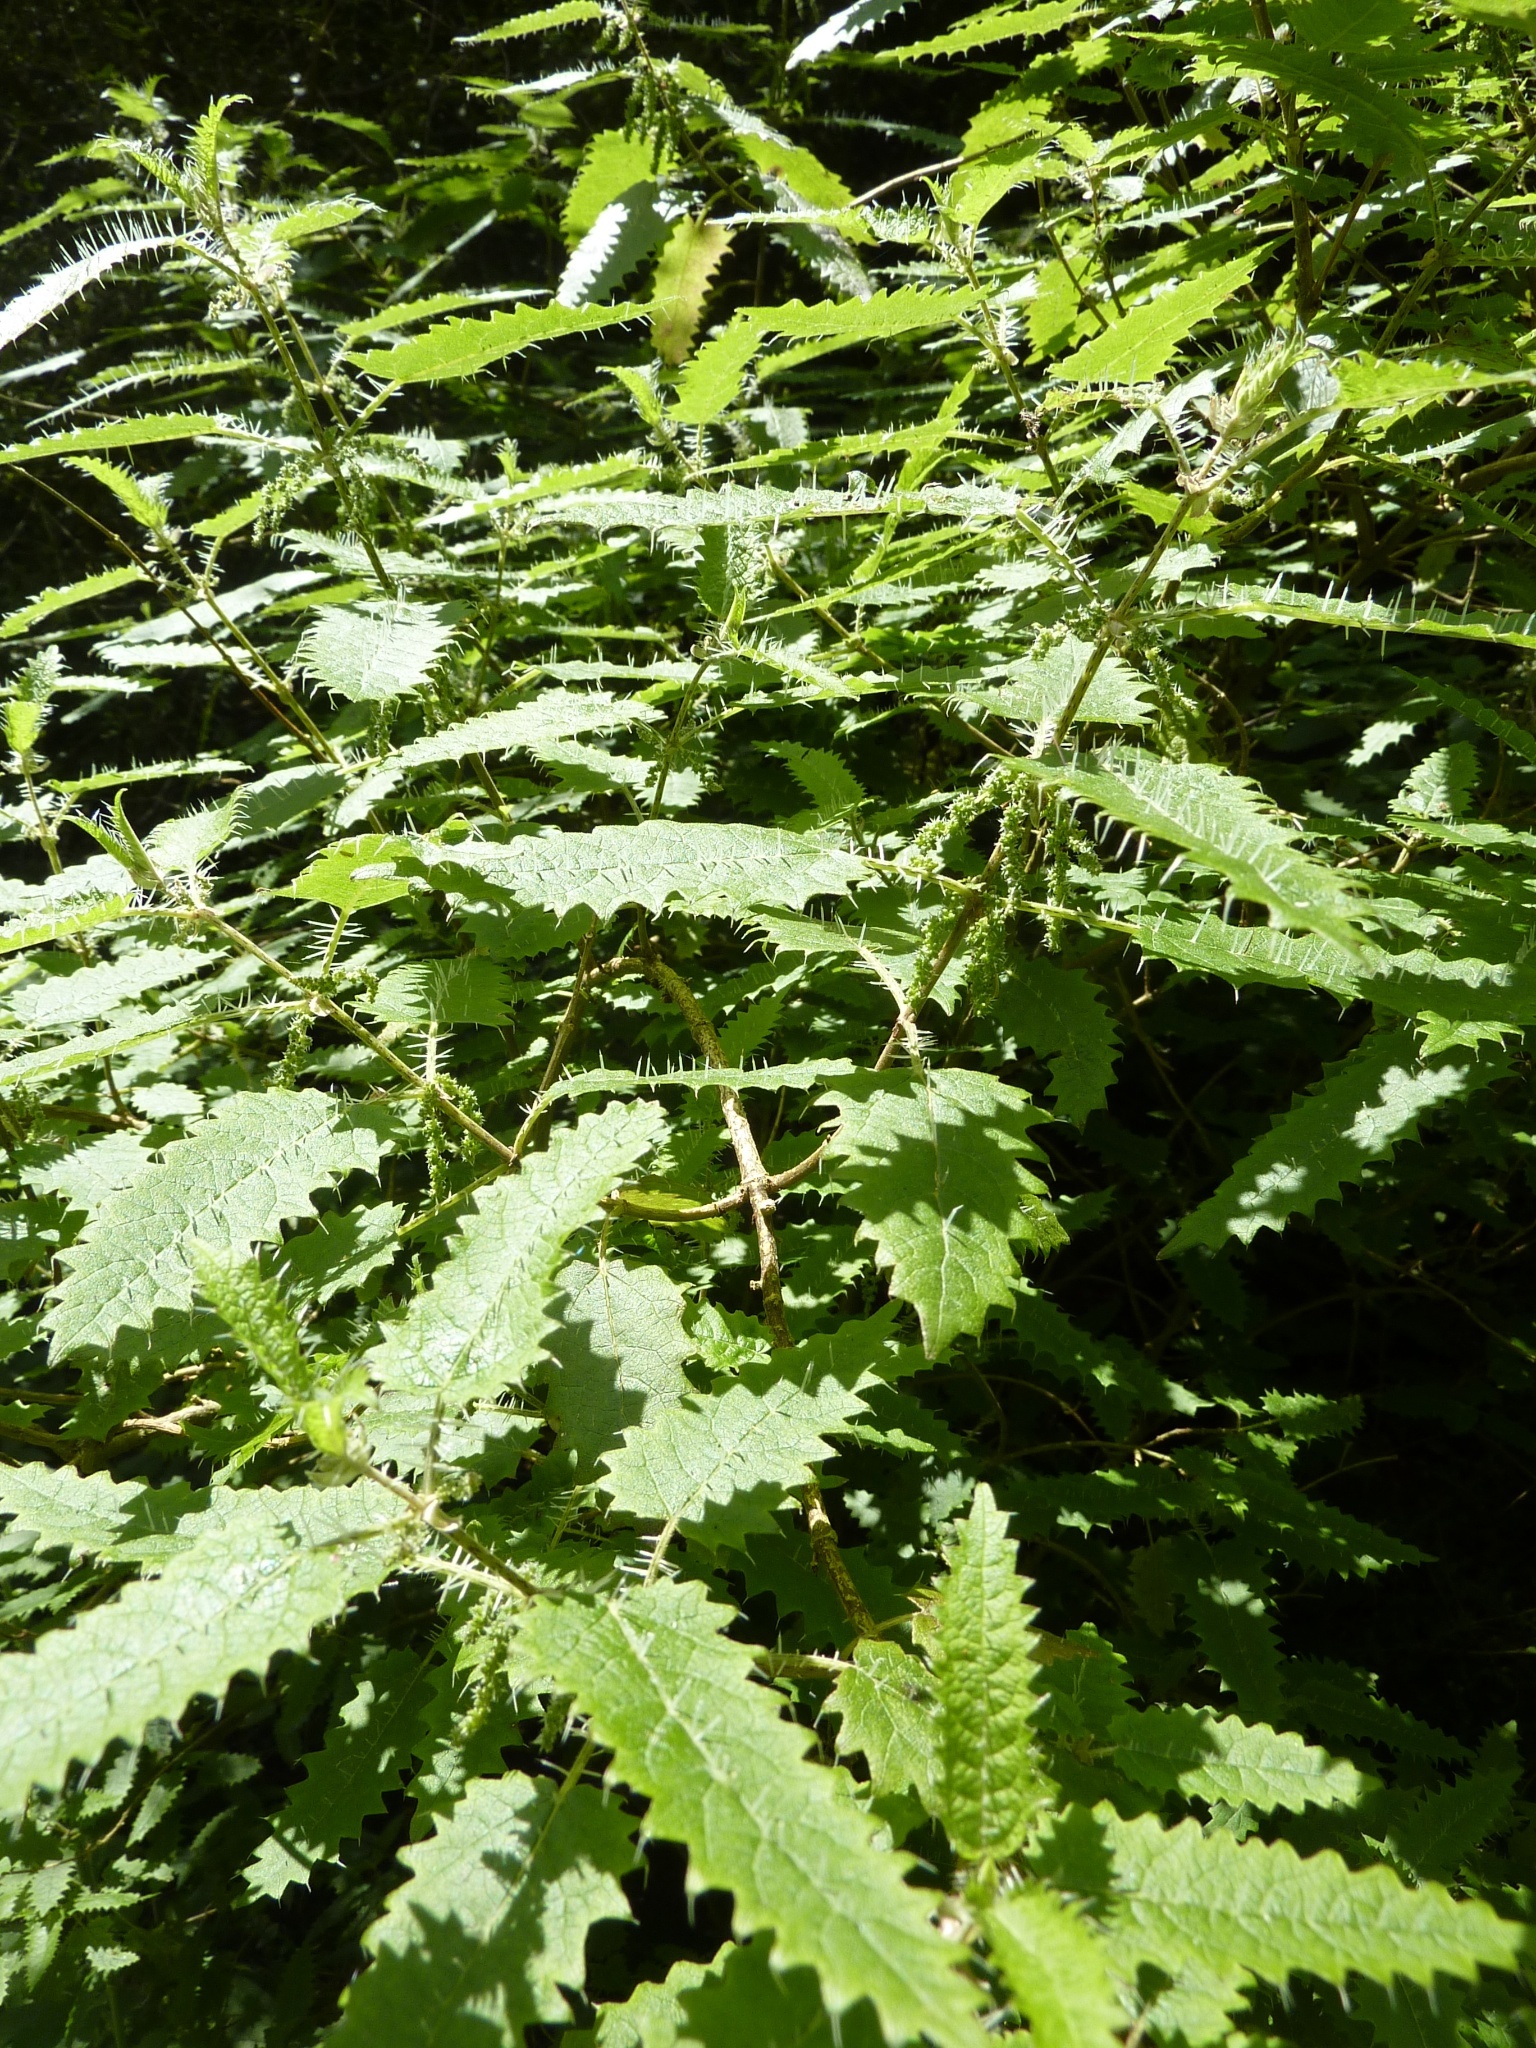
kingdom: Plantae
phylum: Tracheophyta
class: Magnoliopsida
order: Rosales
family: Urticaceae
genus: Urtica
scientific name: Urtica ferox
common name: Tree nettle
